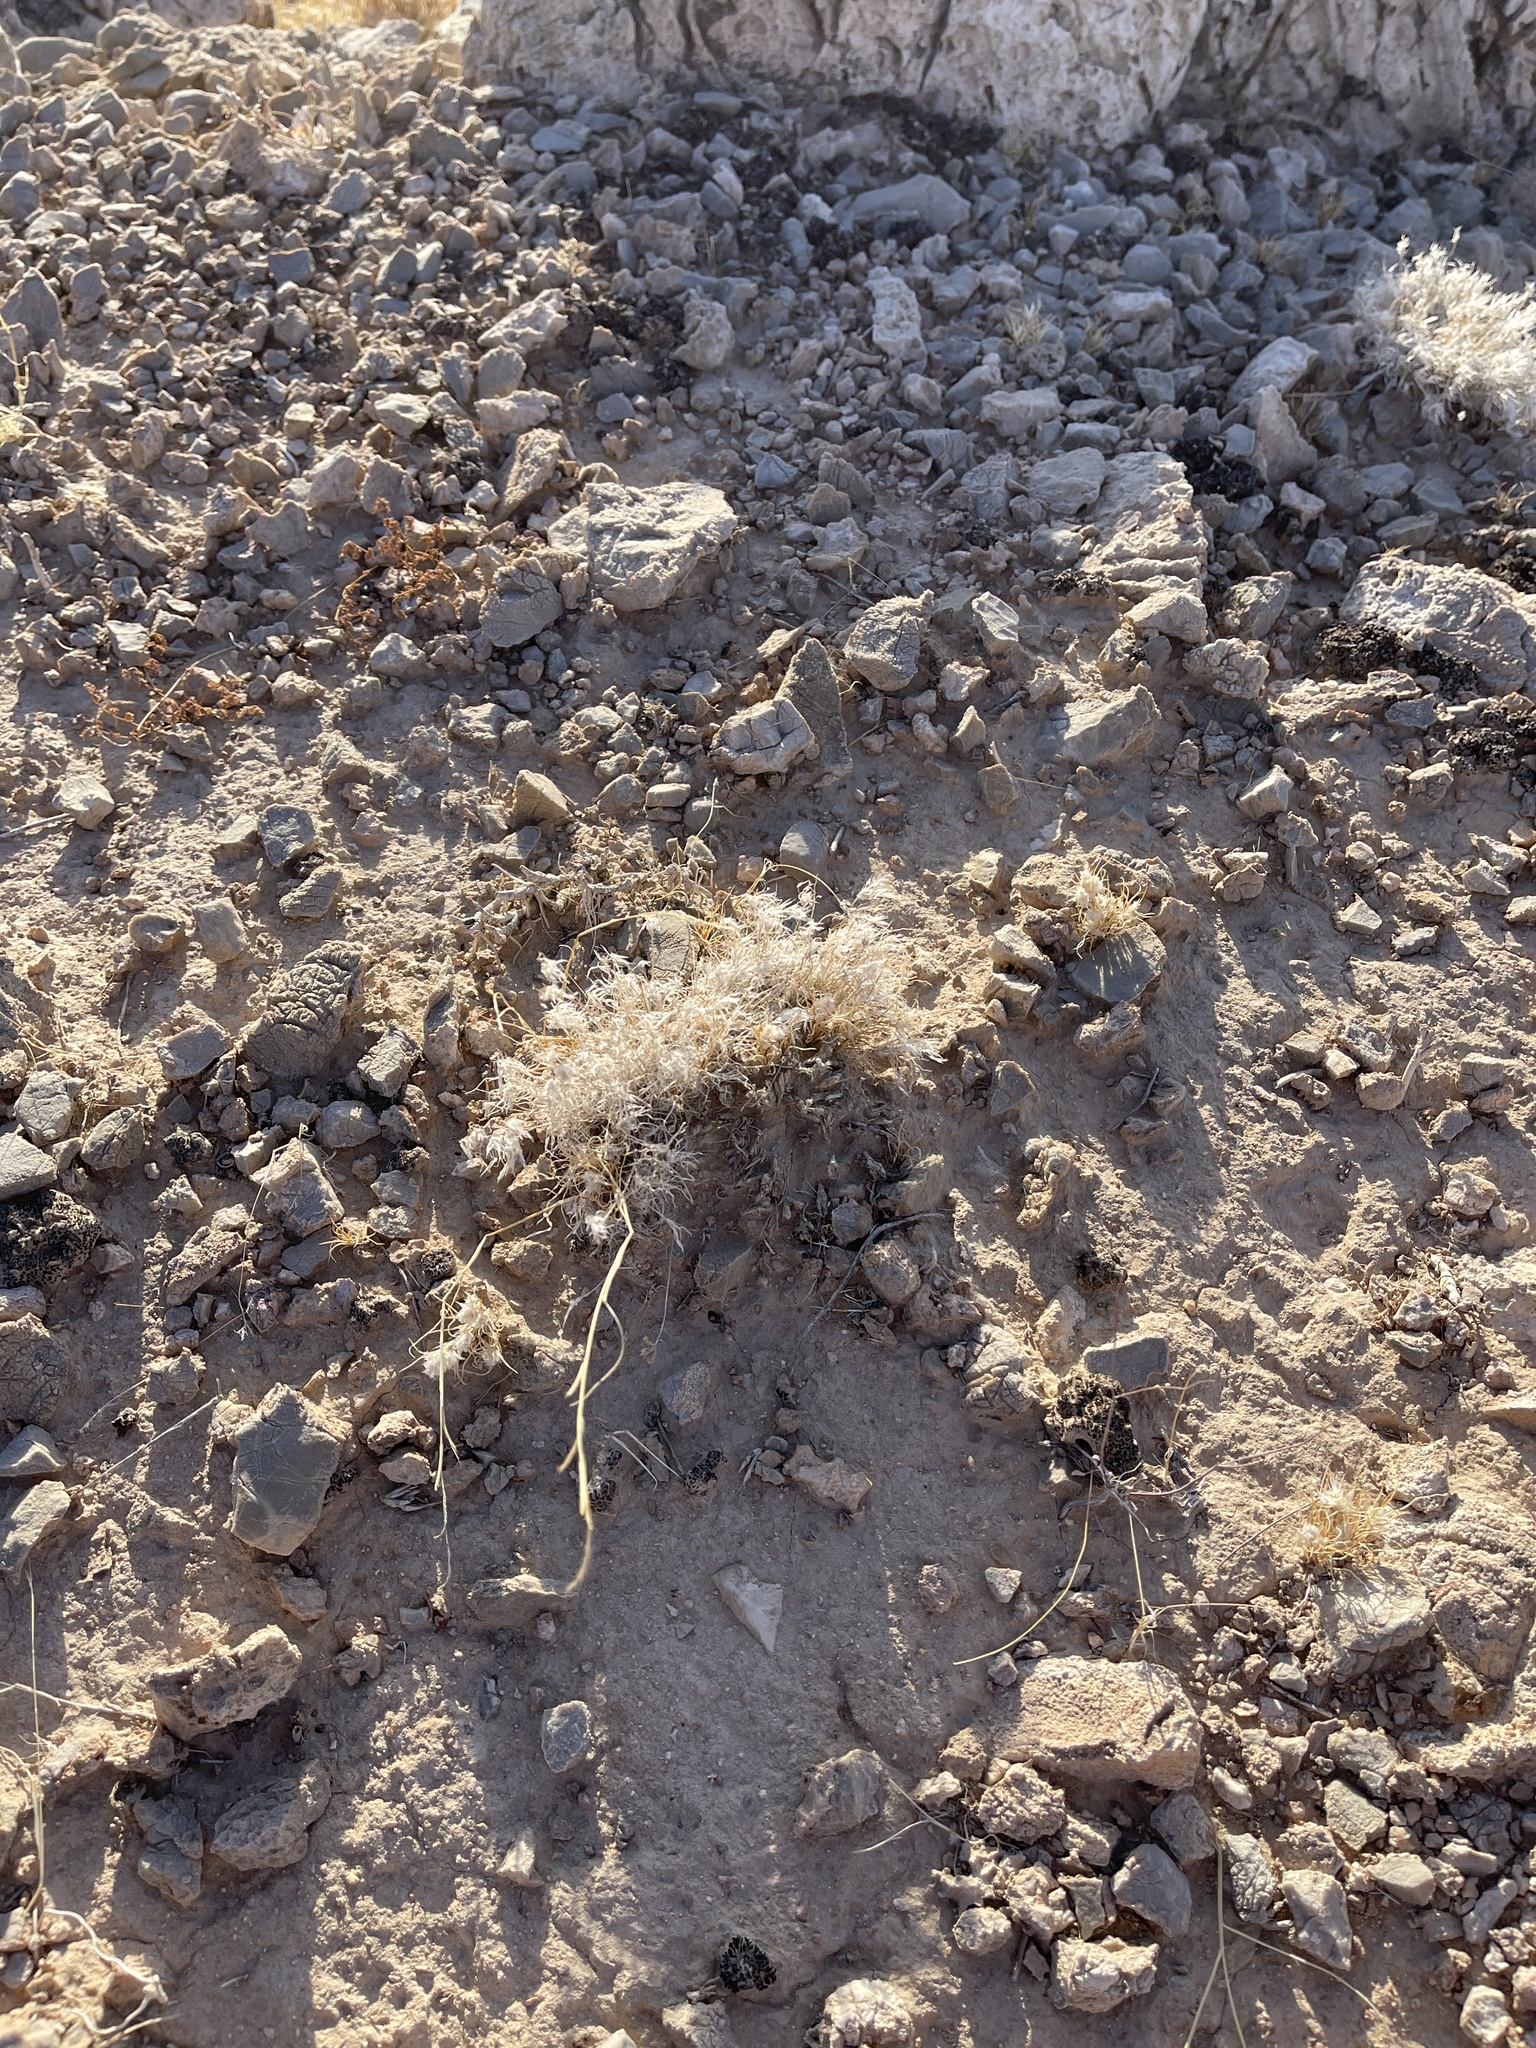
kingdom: Plantae
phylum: Tracheophyta
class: Liliopsida
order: Poales
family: Poaceae
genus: Dasyochloa
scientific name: Dasyochloa pulchella
